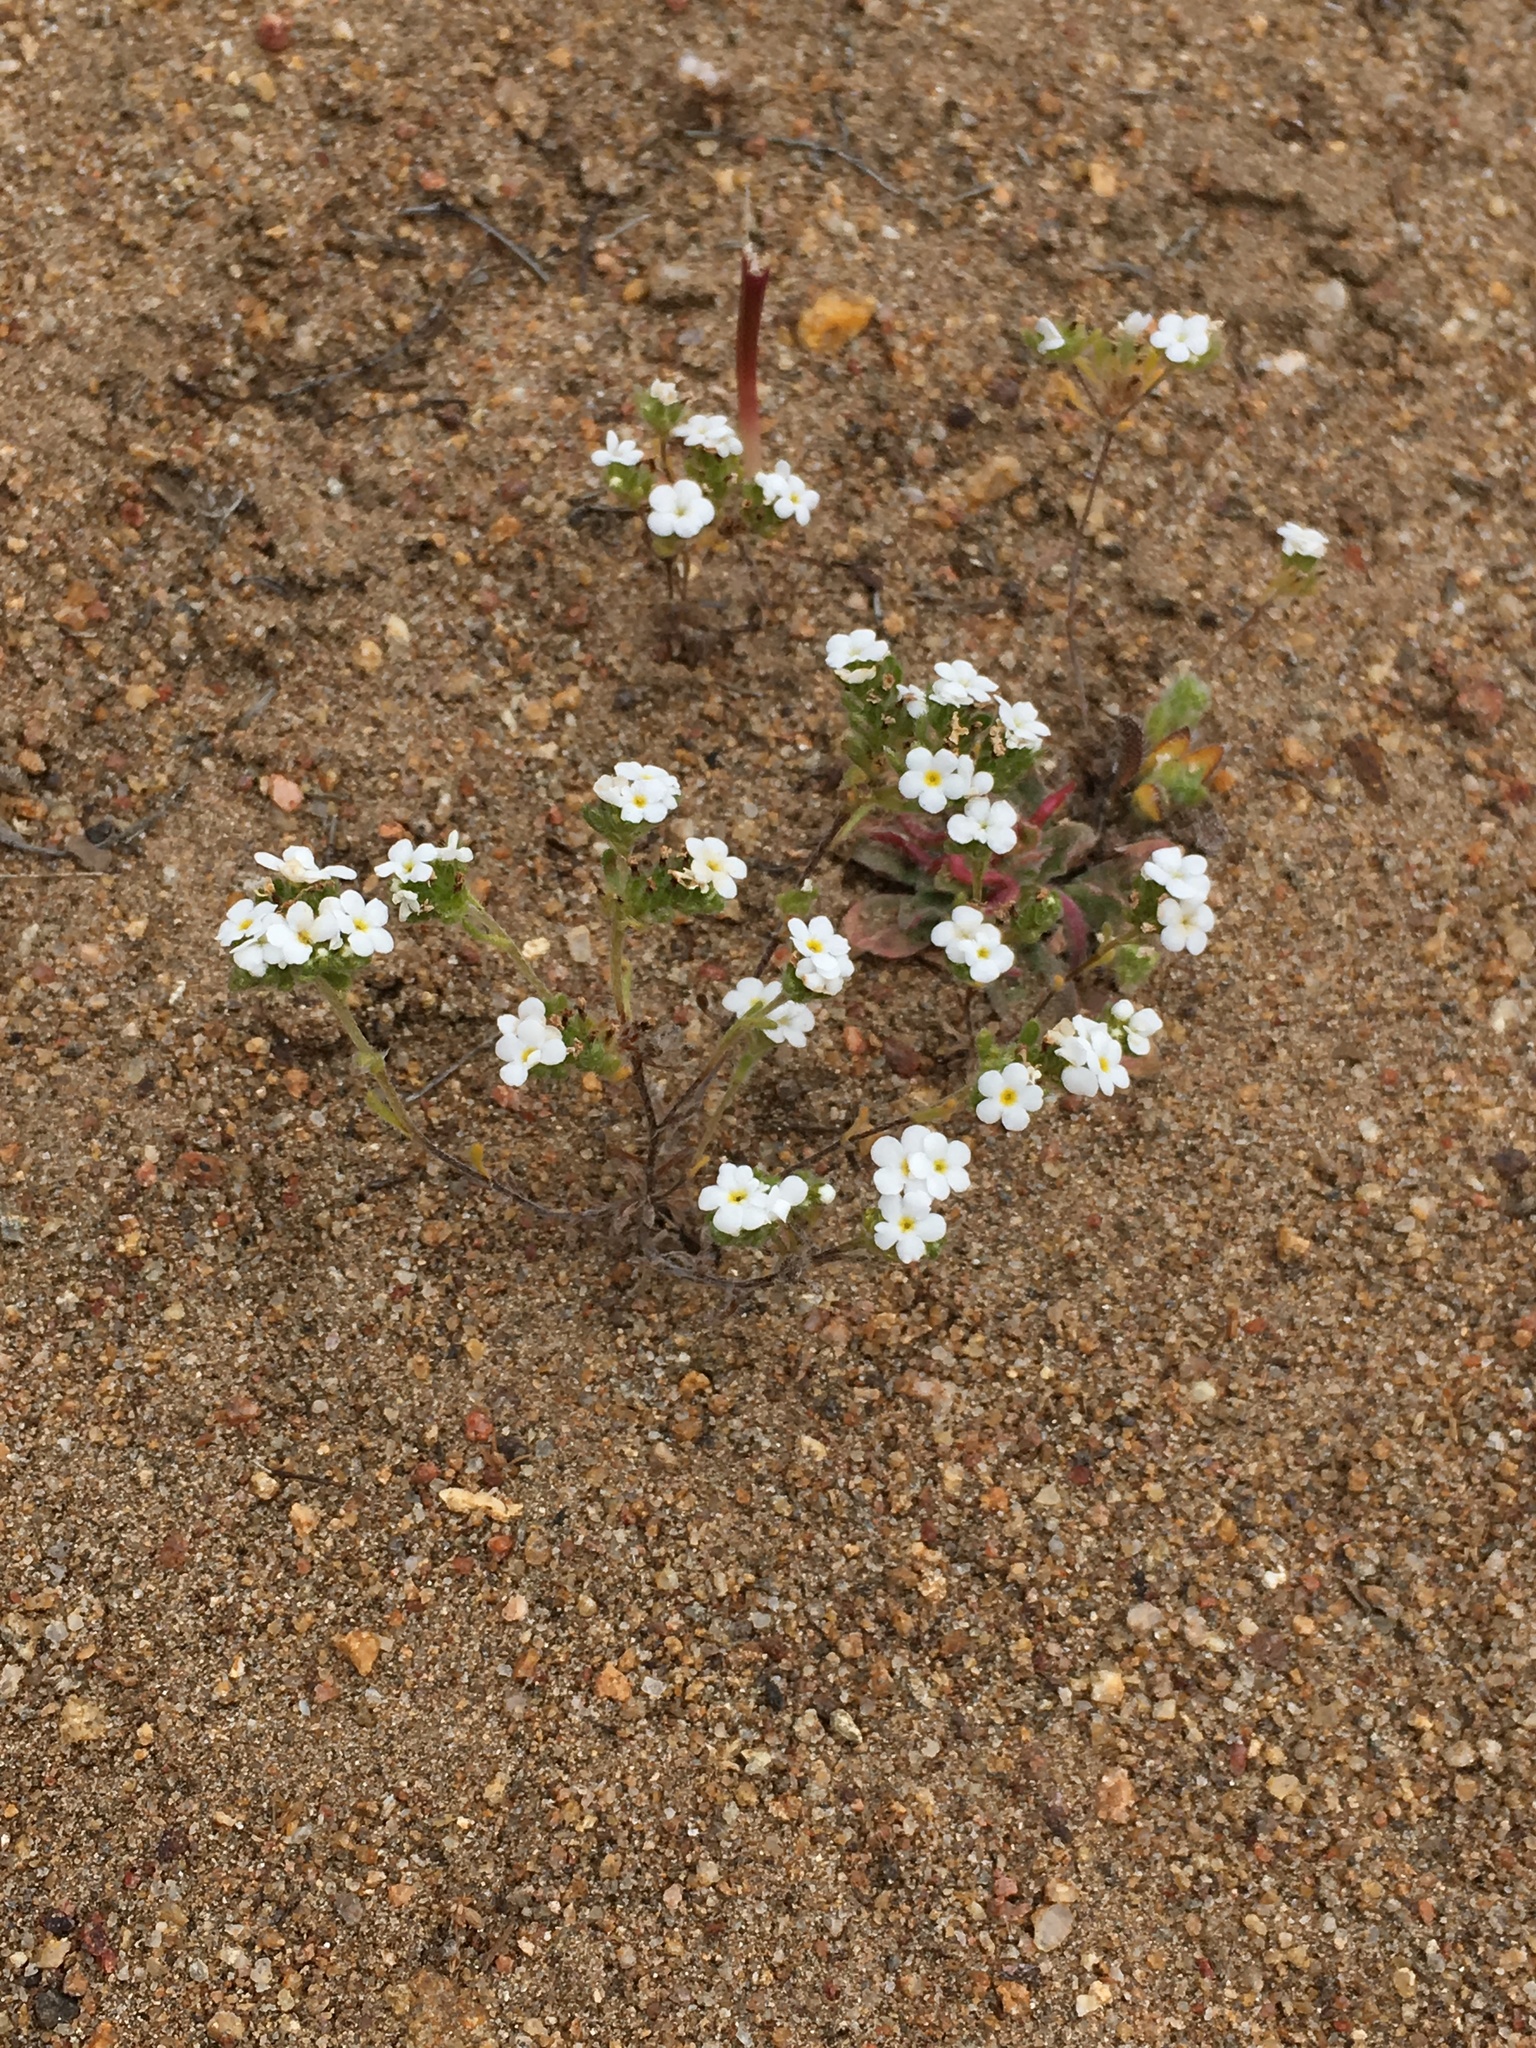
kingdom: Plantae
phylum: Tracheophyta
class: Magnoliopsida
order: Boraginales
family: Boraginaceae
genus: Eremocarya
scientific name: Eremocarya lepida
